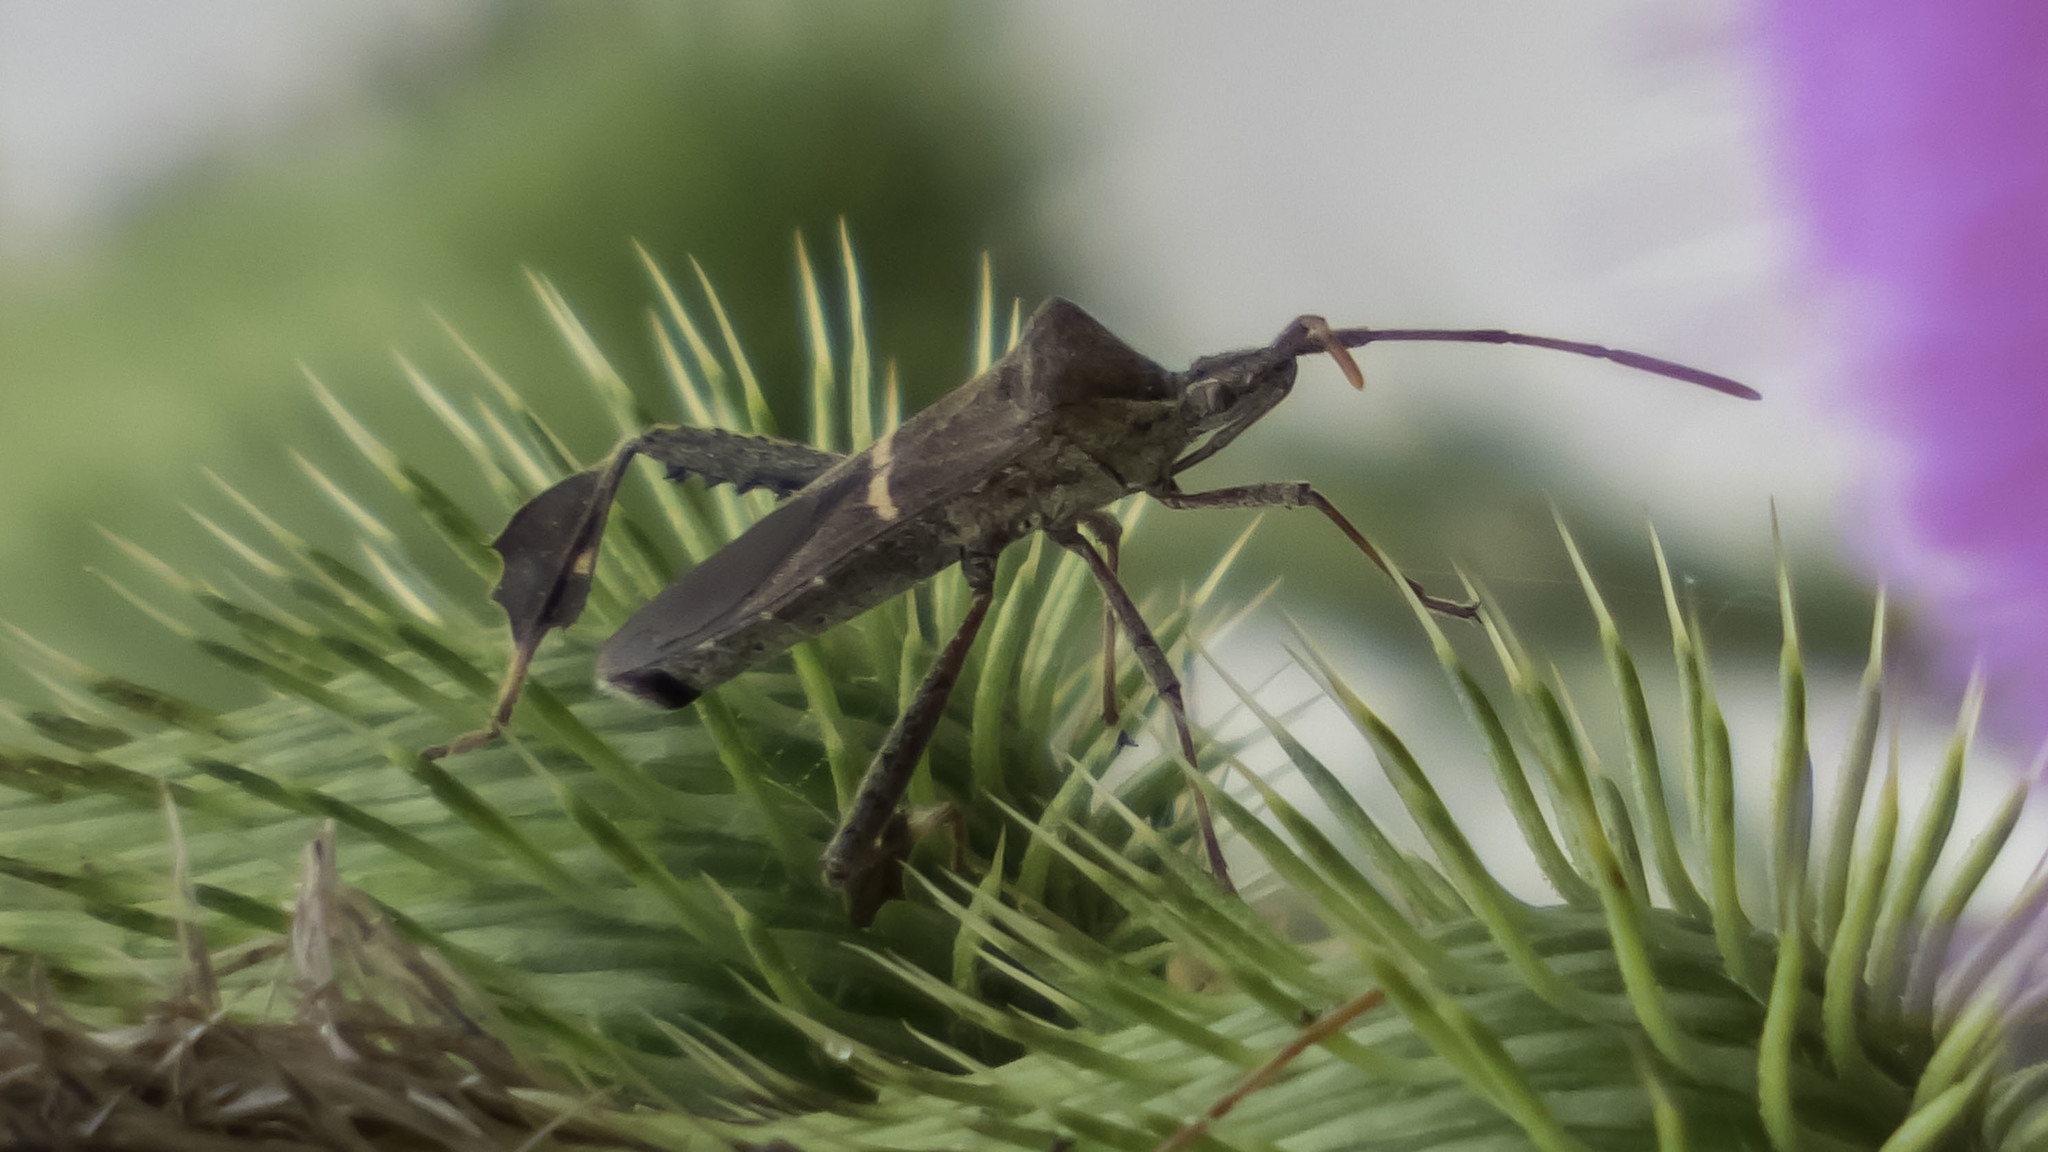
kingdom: Animalia
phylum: Arthropoda
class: Insecta
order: Hemiptera
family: Coreidae
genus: Leptoglossus
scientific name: Leptoglossus phyllopus
